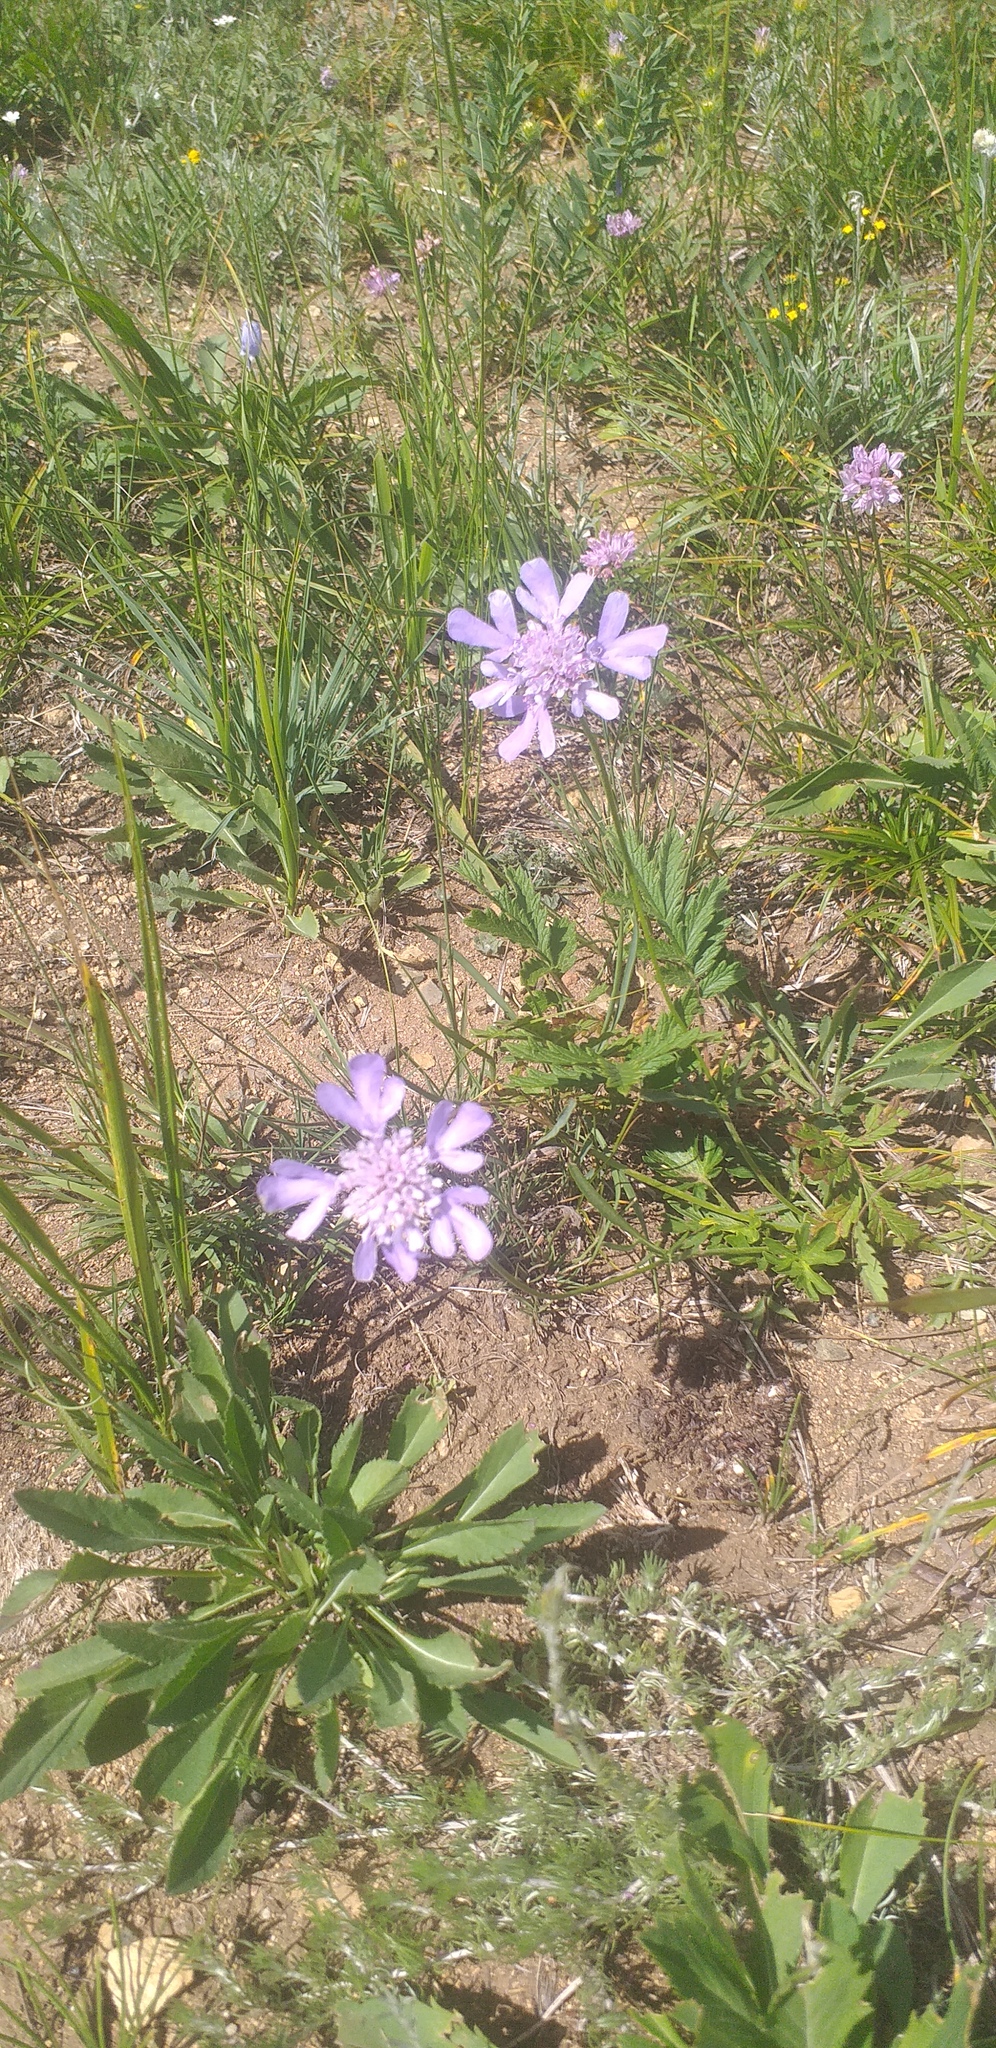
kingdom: Plantae
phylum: Tracheophyta
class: Magnoliopsida
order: Dipsacales
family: Caprifoliaceae
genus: Scabiosa
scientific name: Scabiosa comosa
